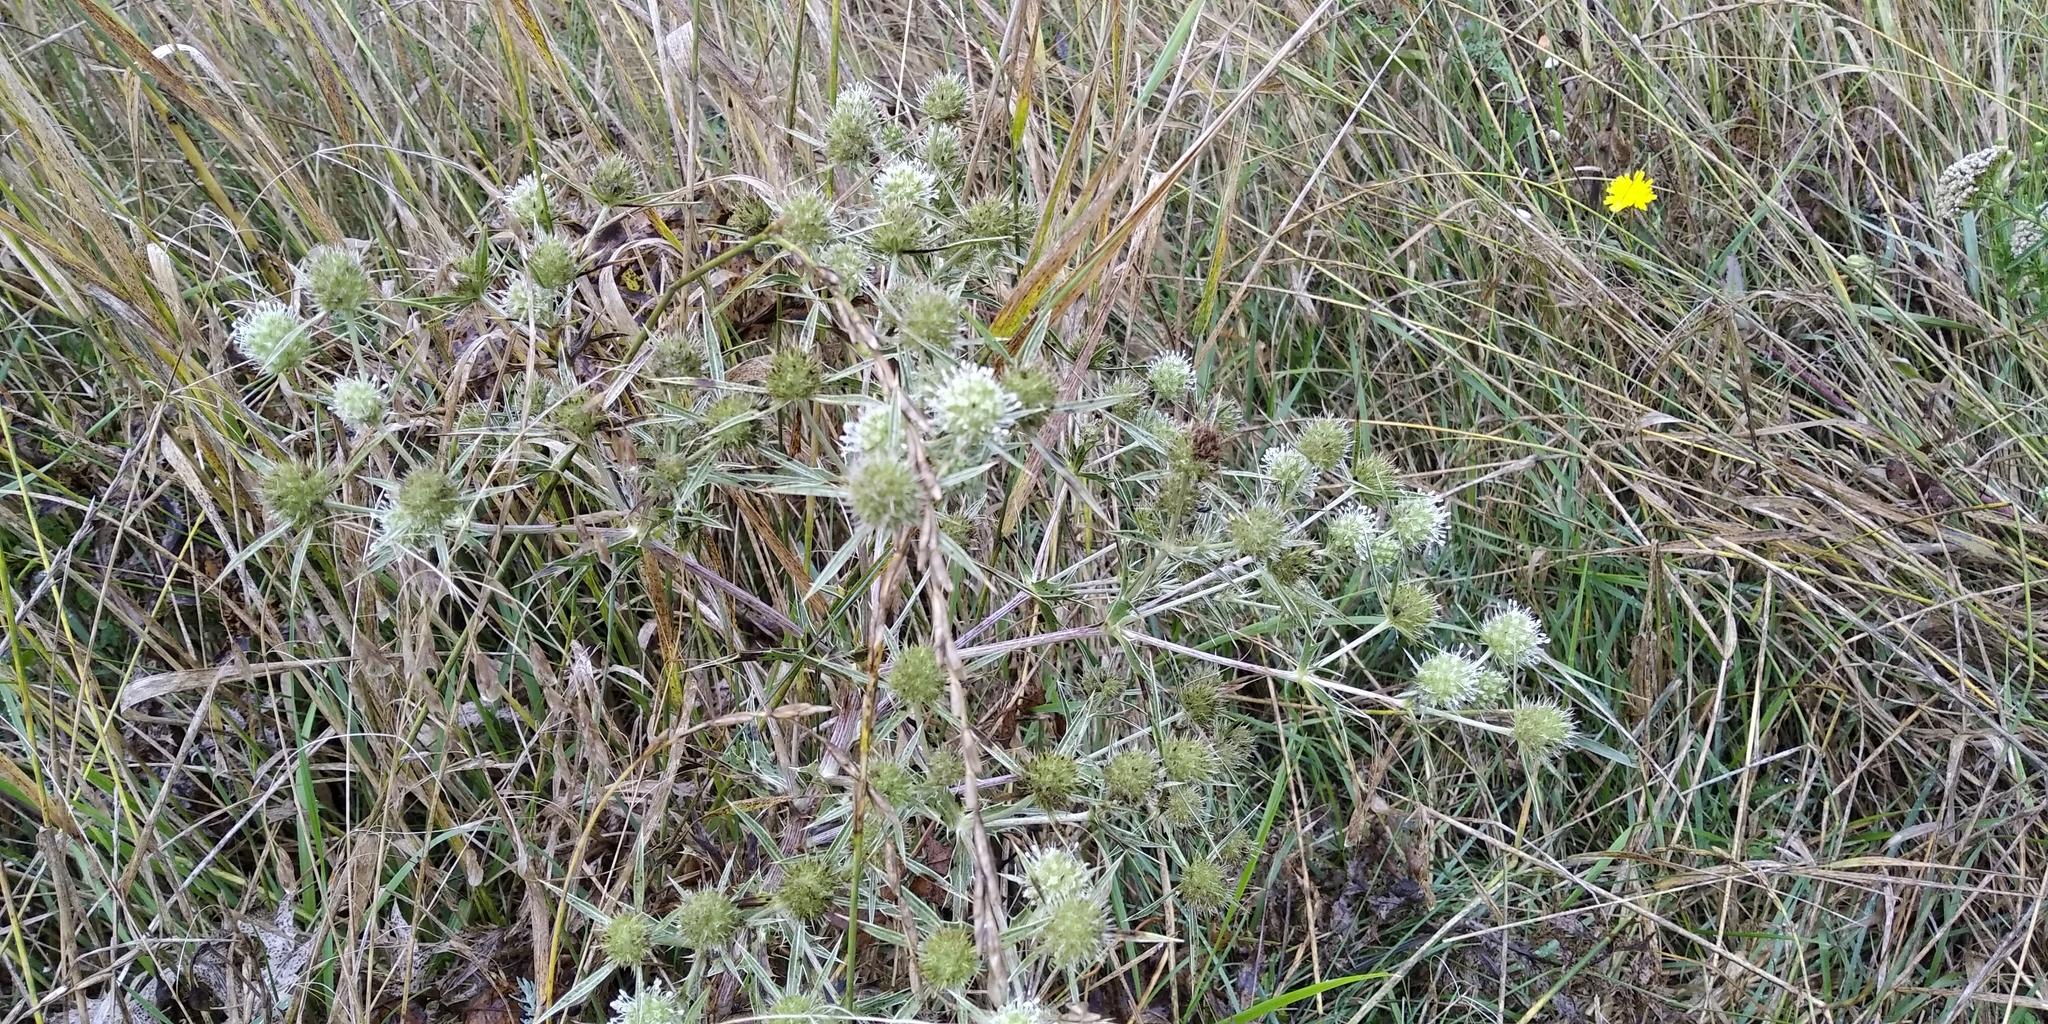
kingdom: Plantae
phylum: Tracheophyta
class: Magnoliopsida
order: Apiales
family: Apiaceae
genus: Eryngium
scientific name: Eryngium campestre
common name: Field eryngo
